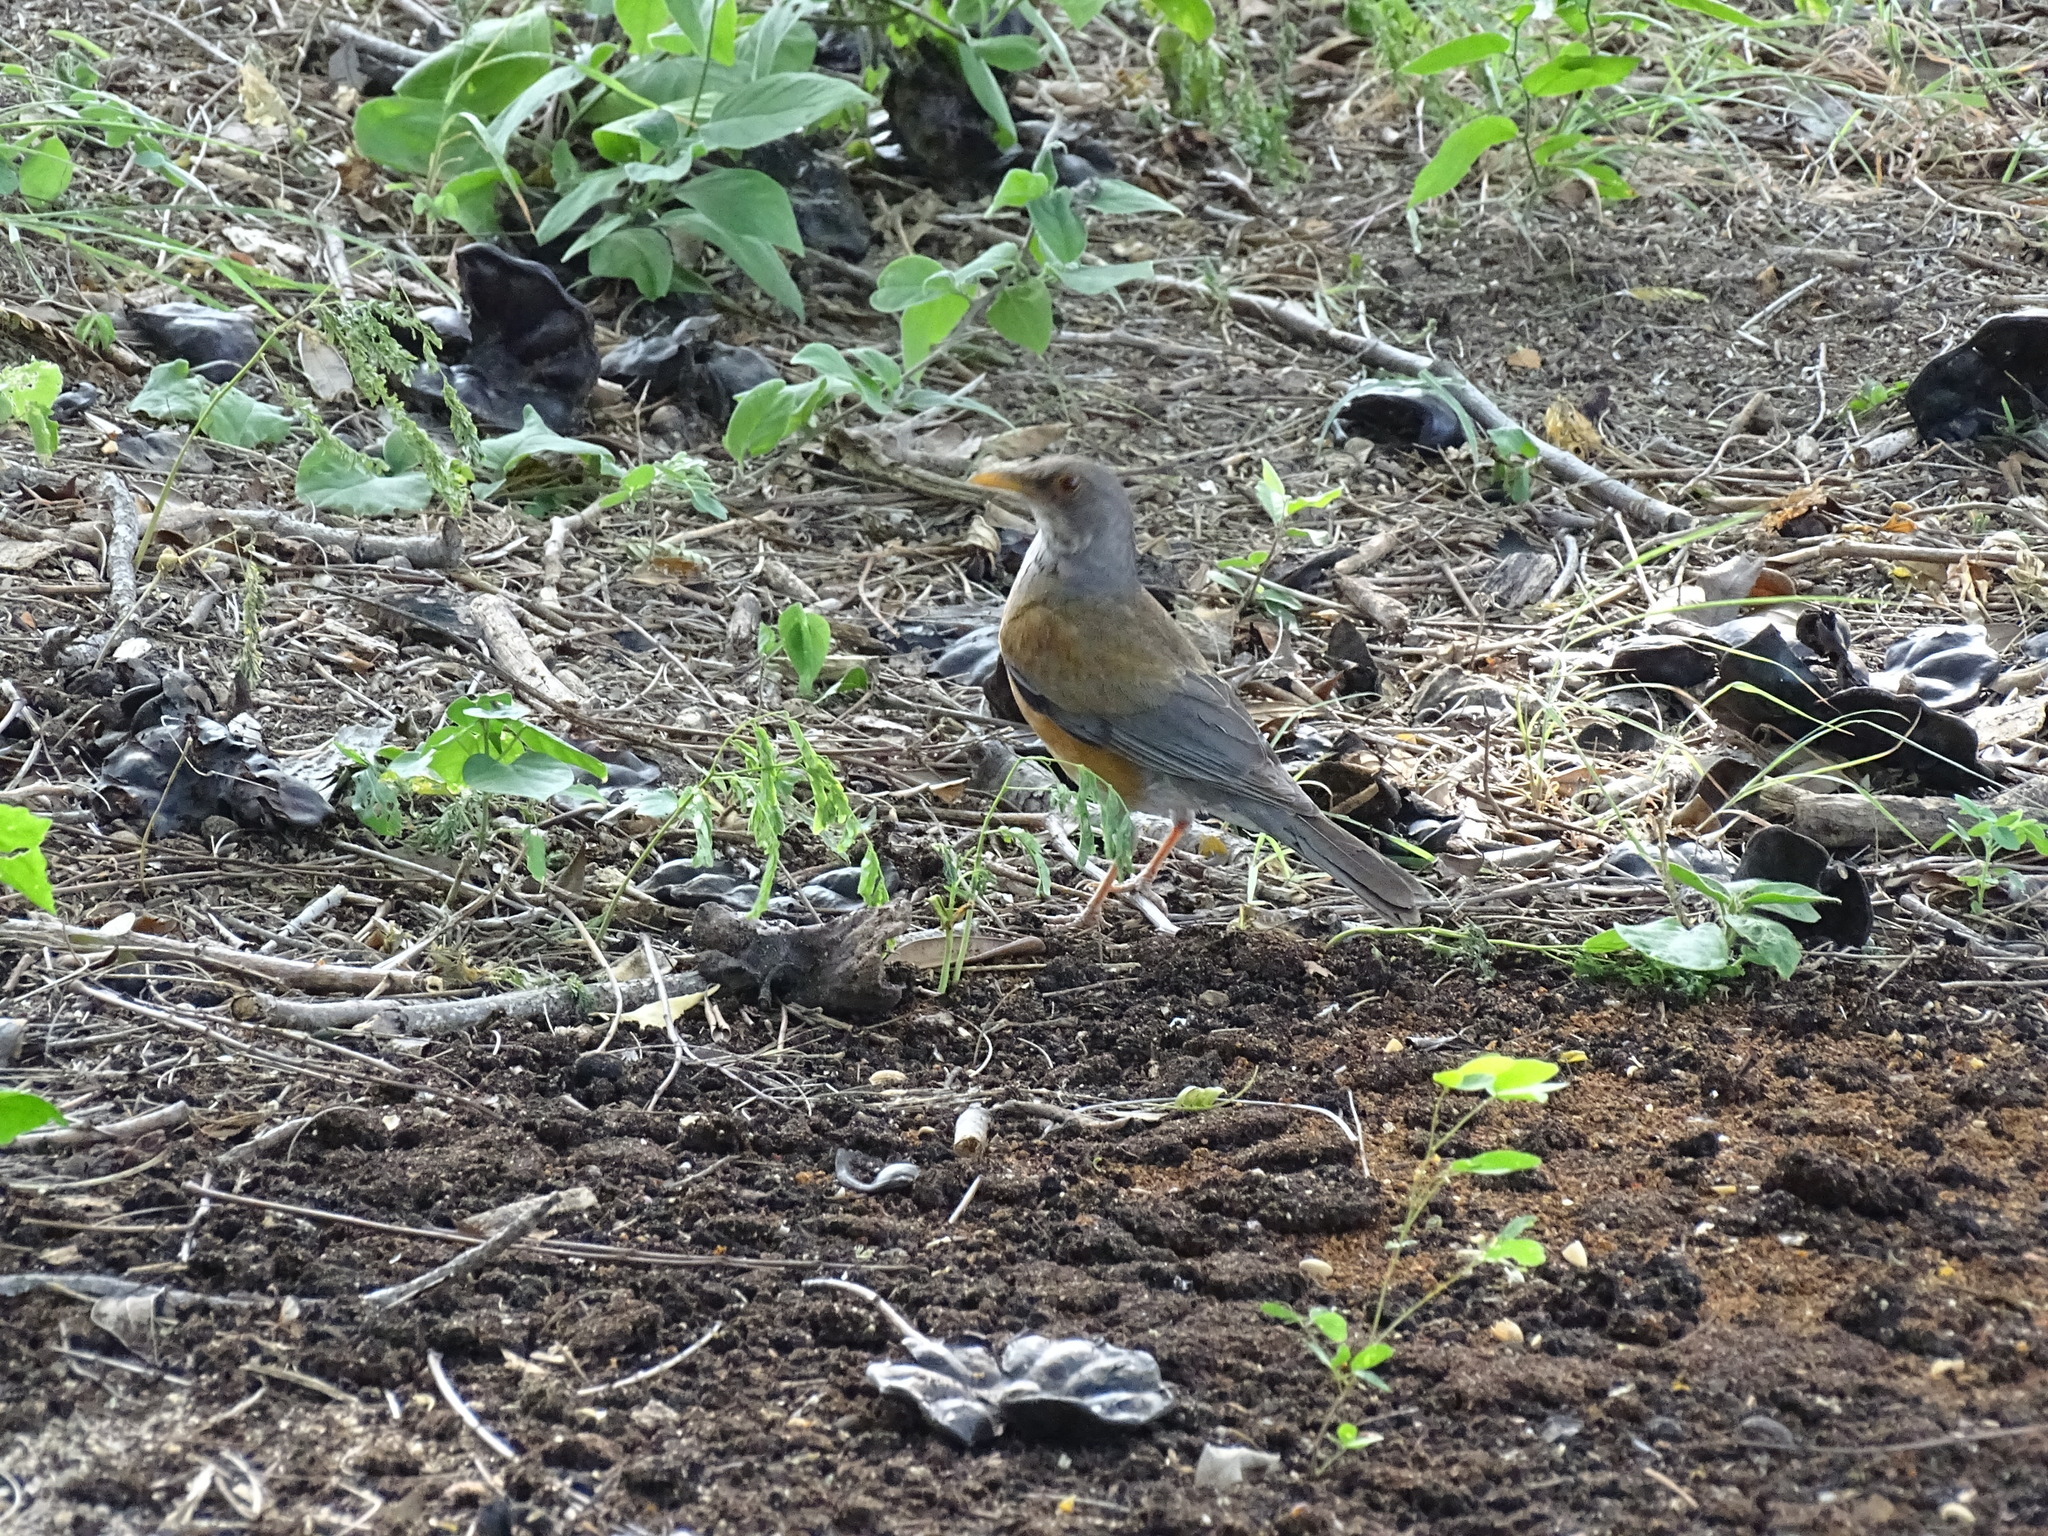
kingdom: Animalia
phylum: Chordata
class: Aves
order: Passeriformes
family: Turdidae
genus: Turdus
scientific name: Turdus rufopalliatus
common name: Rufous-backed robin
